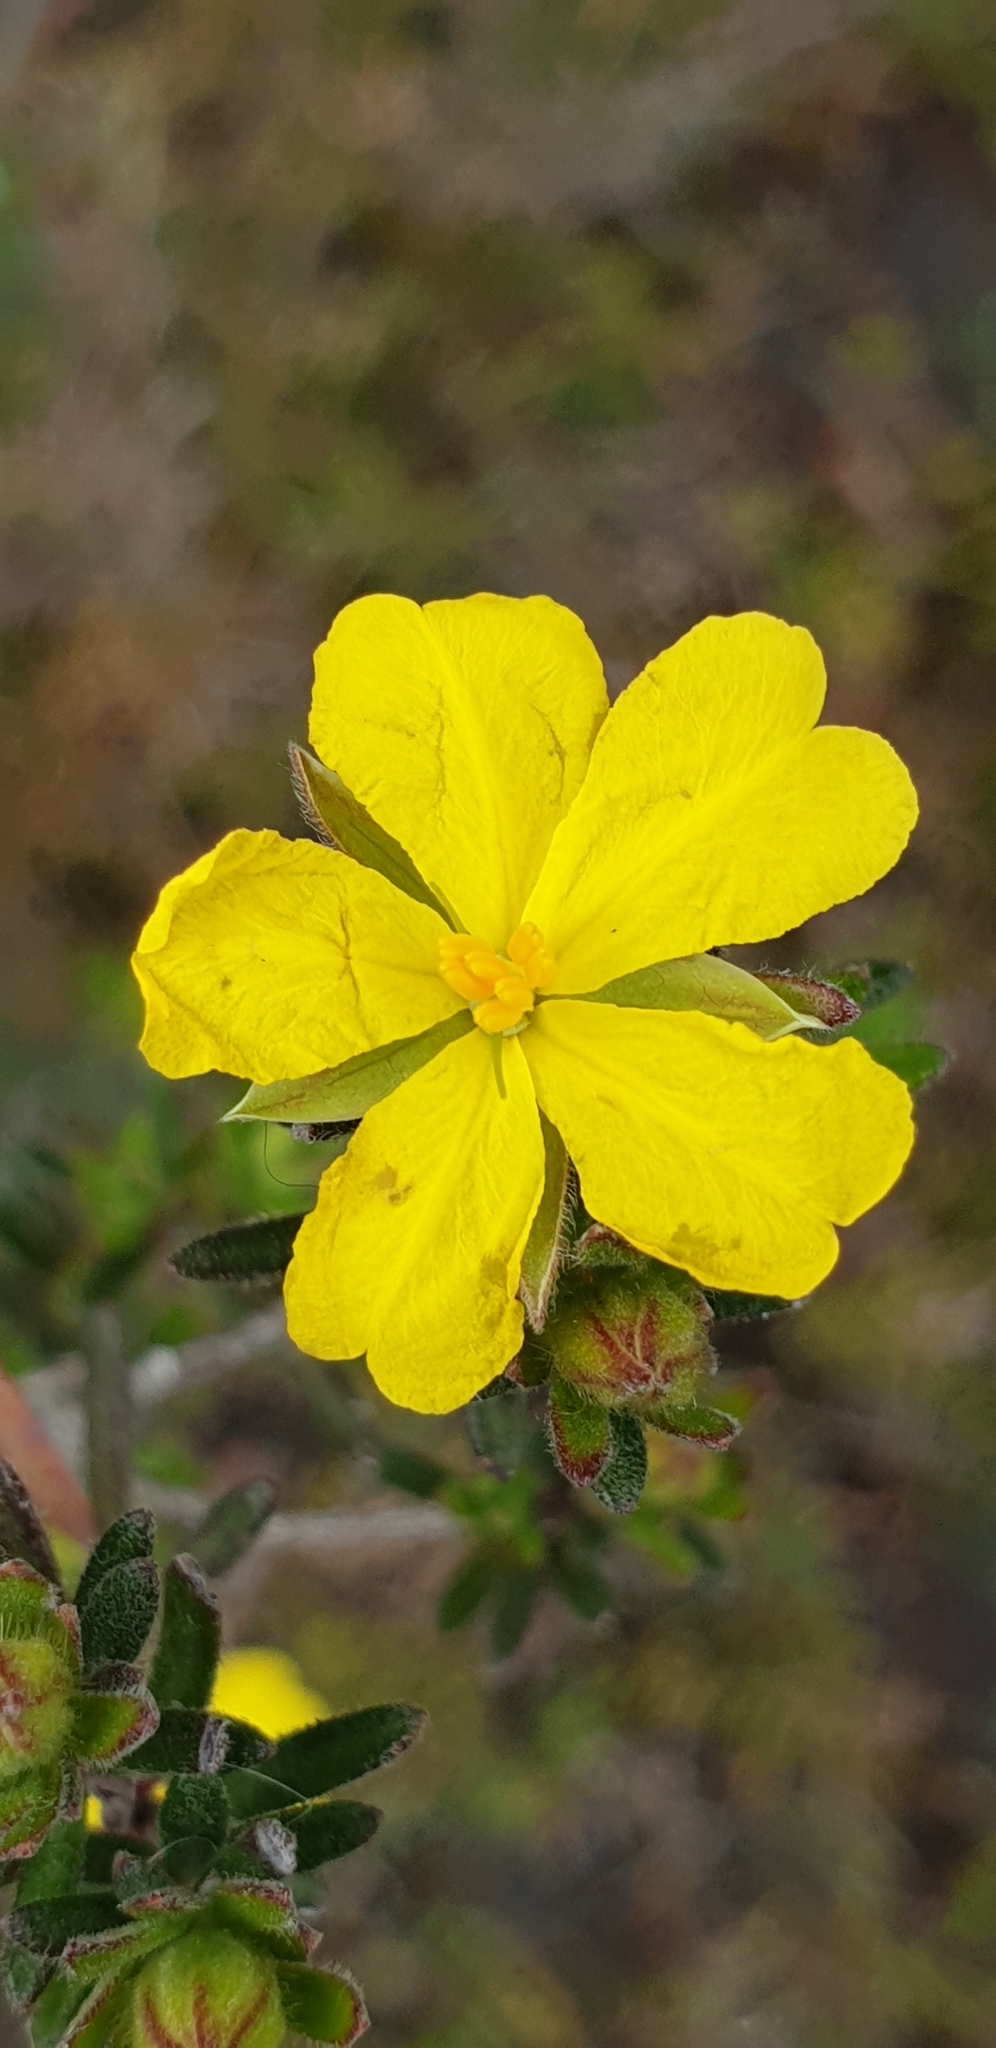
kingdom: Plantae
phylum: Tracheophyta
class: Magnoliopsida
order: Dilleniales
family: Dilleniaceae
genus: Hibbertia
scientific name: Hibbertia setifera
